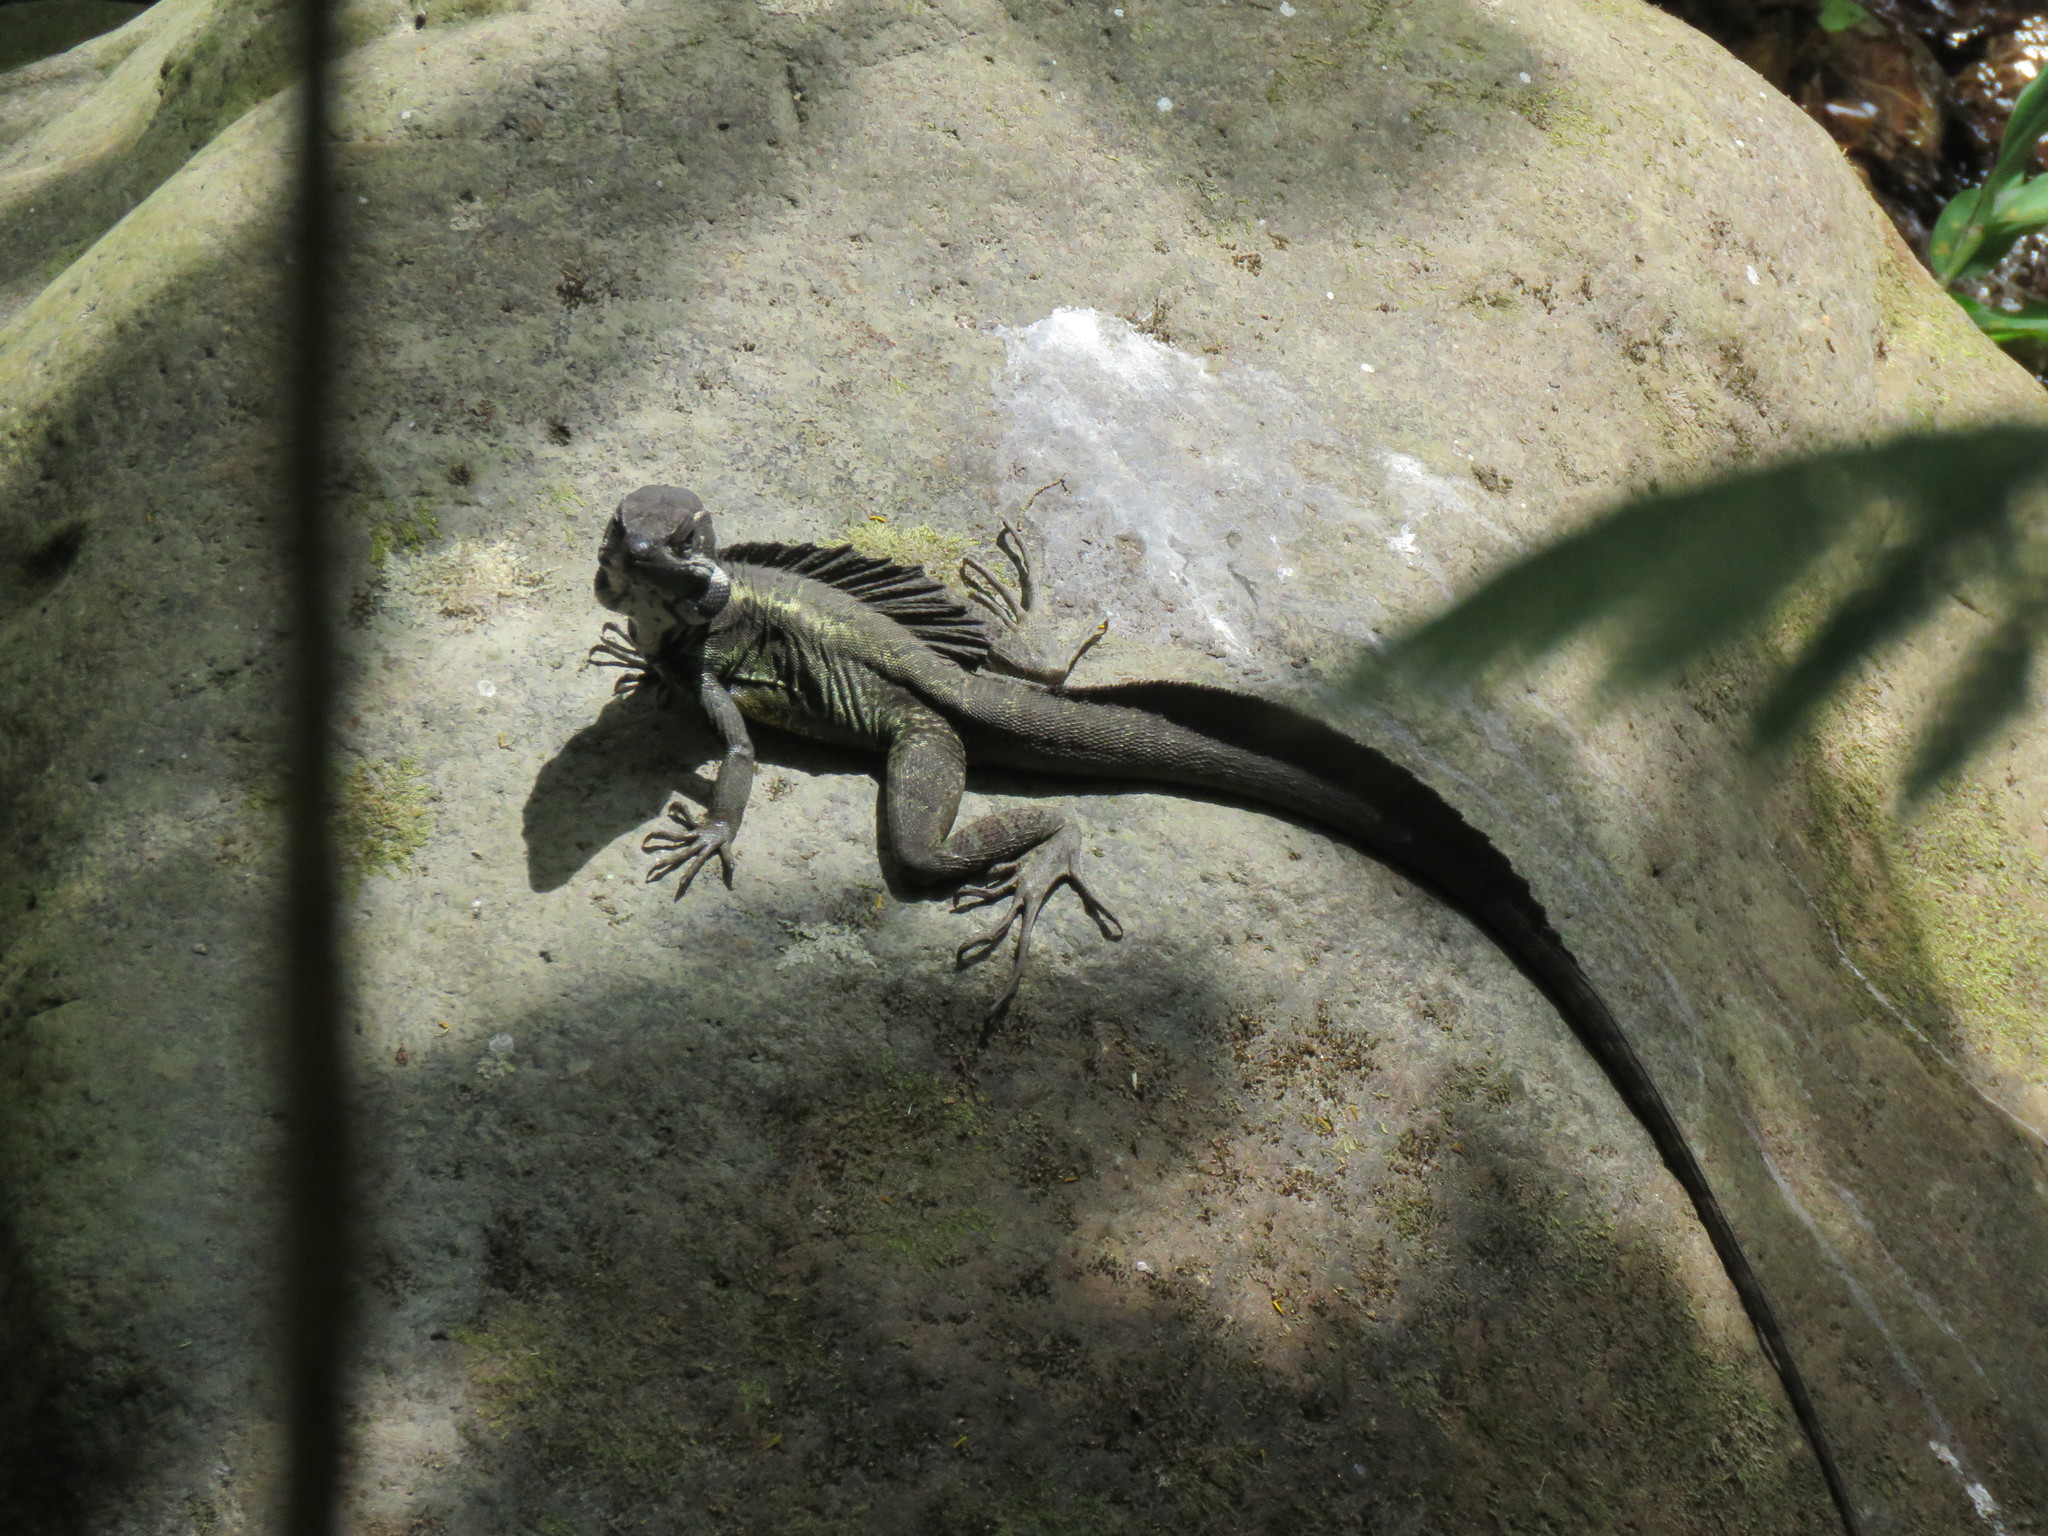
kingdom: Animalia
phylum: Chordata
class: Squamata
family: Corytophanidae
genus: Basiliscus
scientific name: Basiliscus basiliscus
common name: Common basilisk
